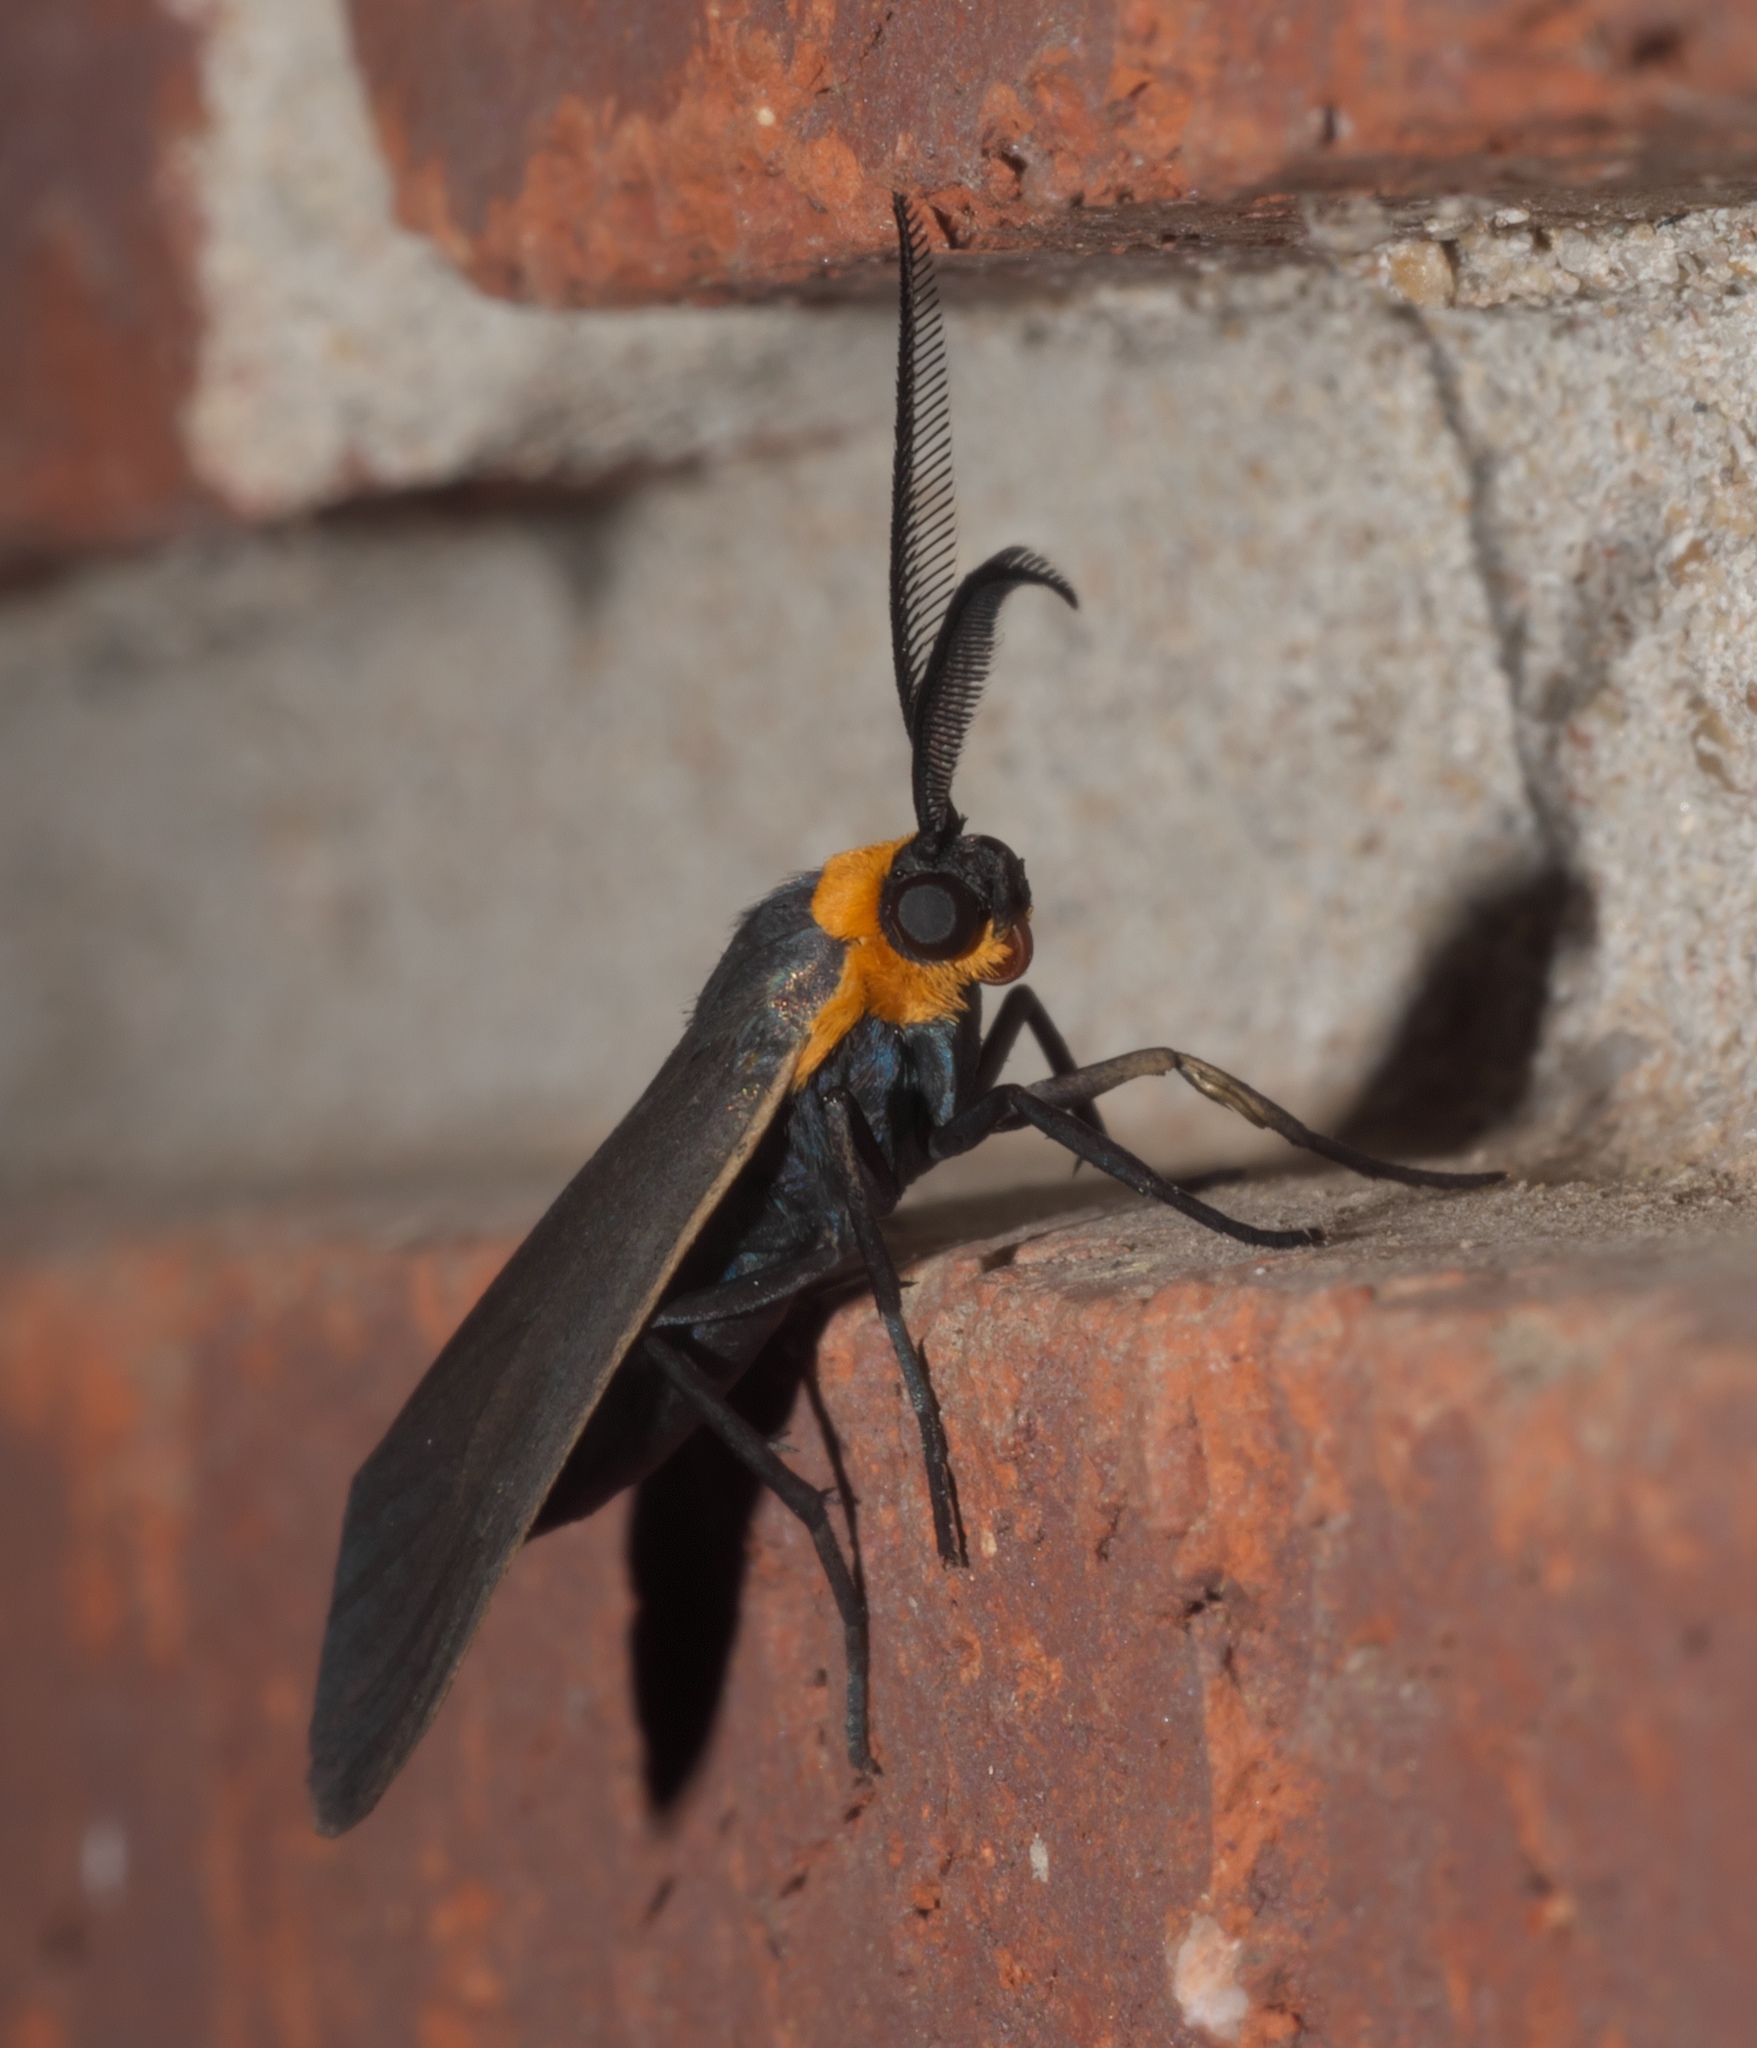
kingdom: Animalia
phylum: Arthropoda
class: Insecta
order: Lepidoptera
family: Erebidae
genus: Cisseps
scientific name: Cisseps fulvicollis
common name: Yellow-collared scape moth
